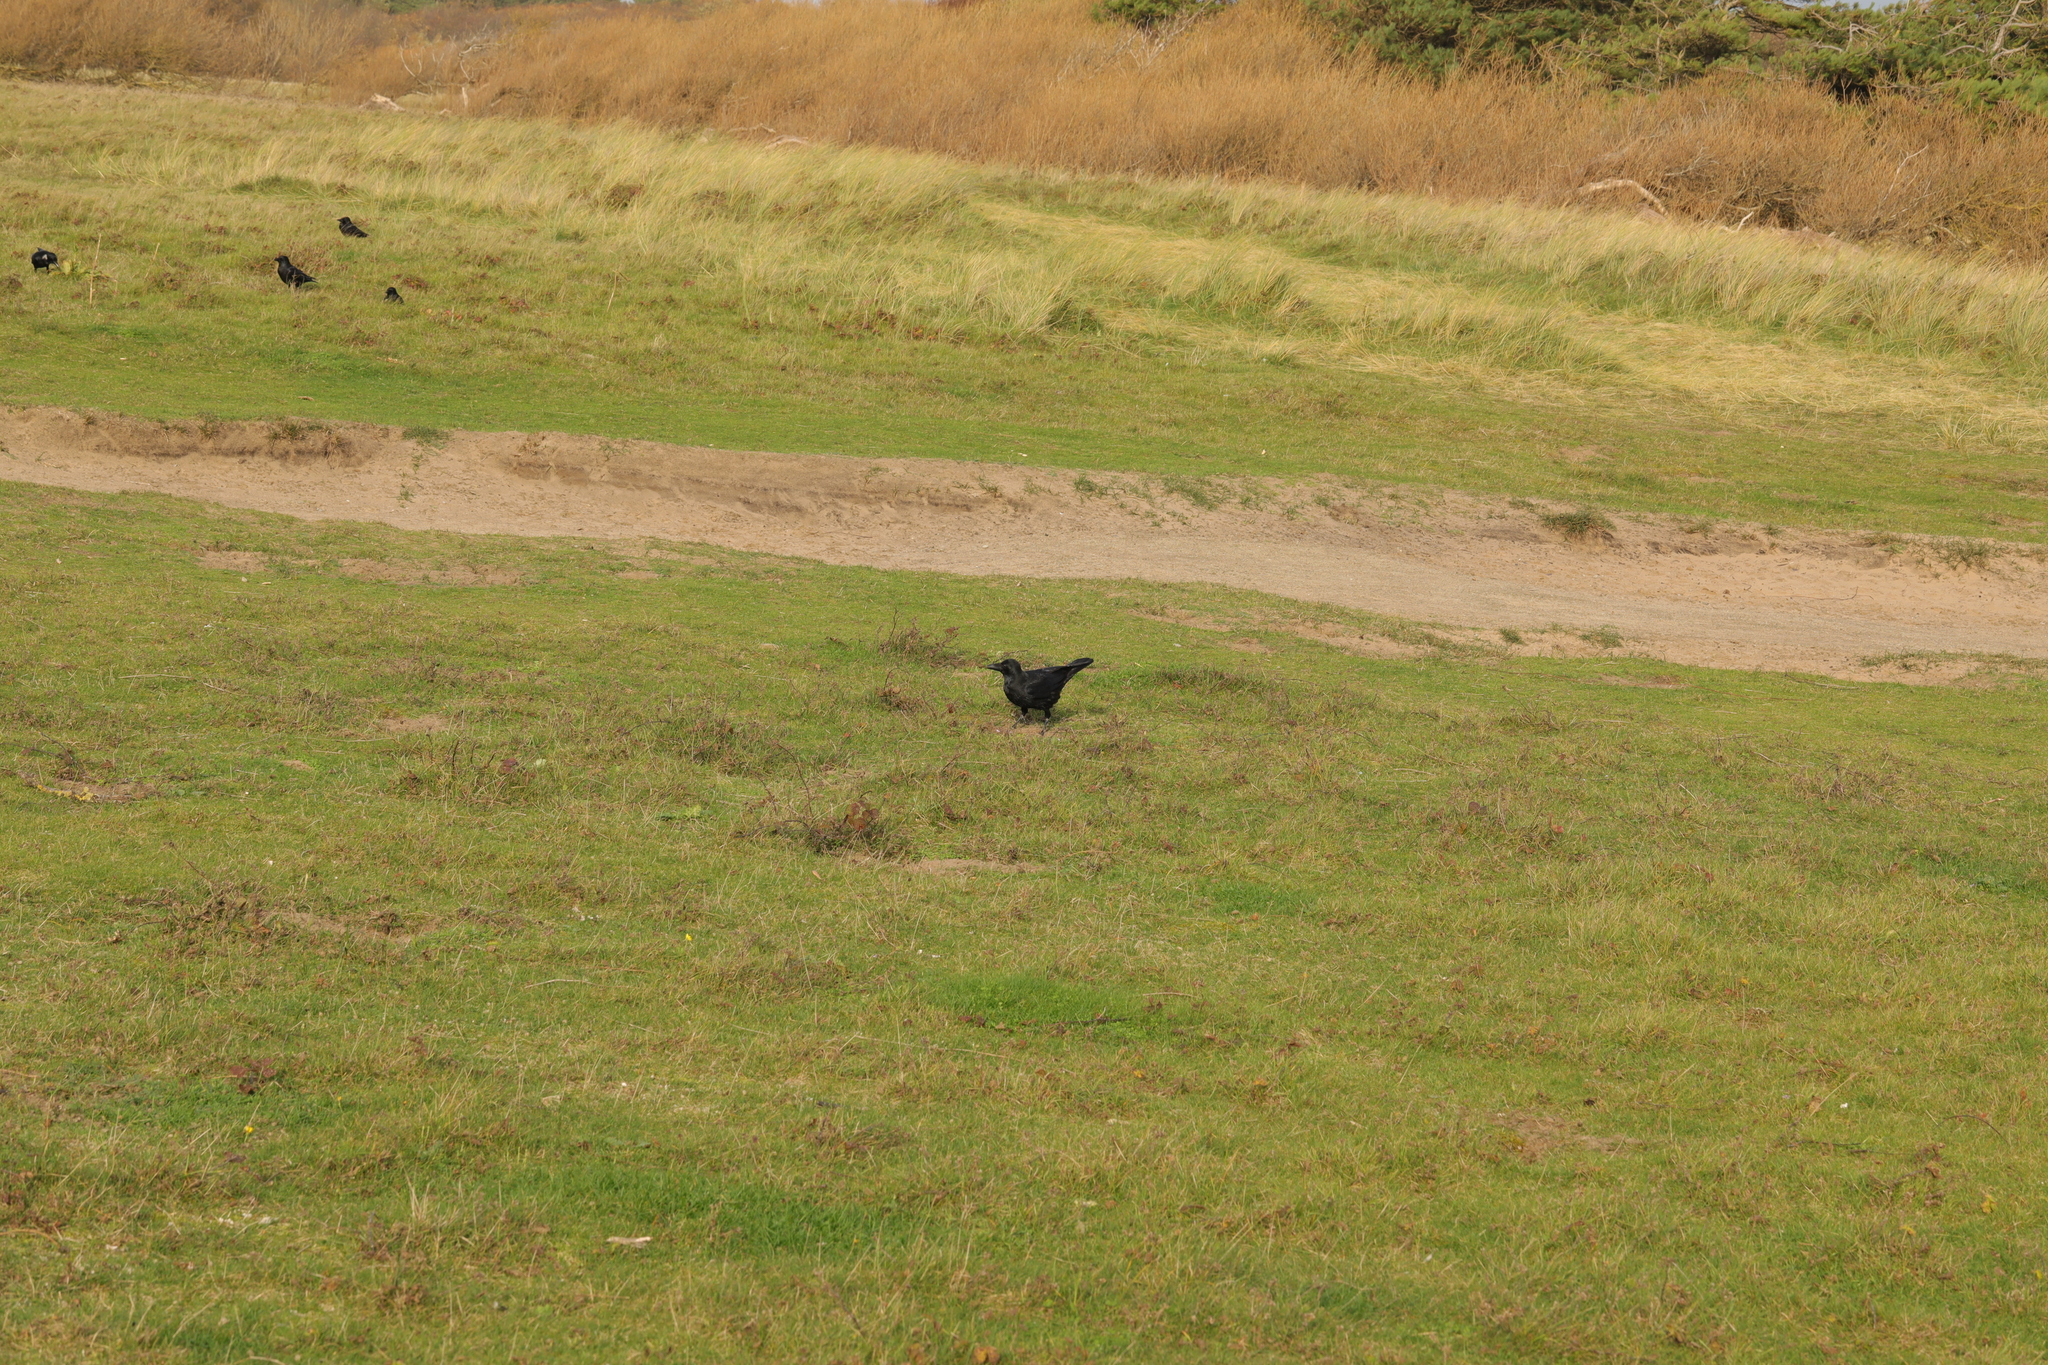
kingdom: Animalia
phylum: Chordata
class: Aves
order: Passeriformes
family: Corvidae
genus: Corvus
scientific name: Corvus corone
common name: Carrion crow
